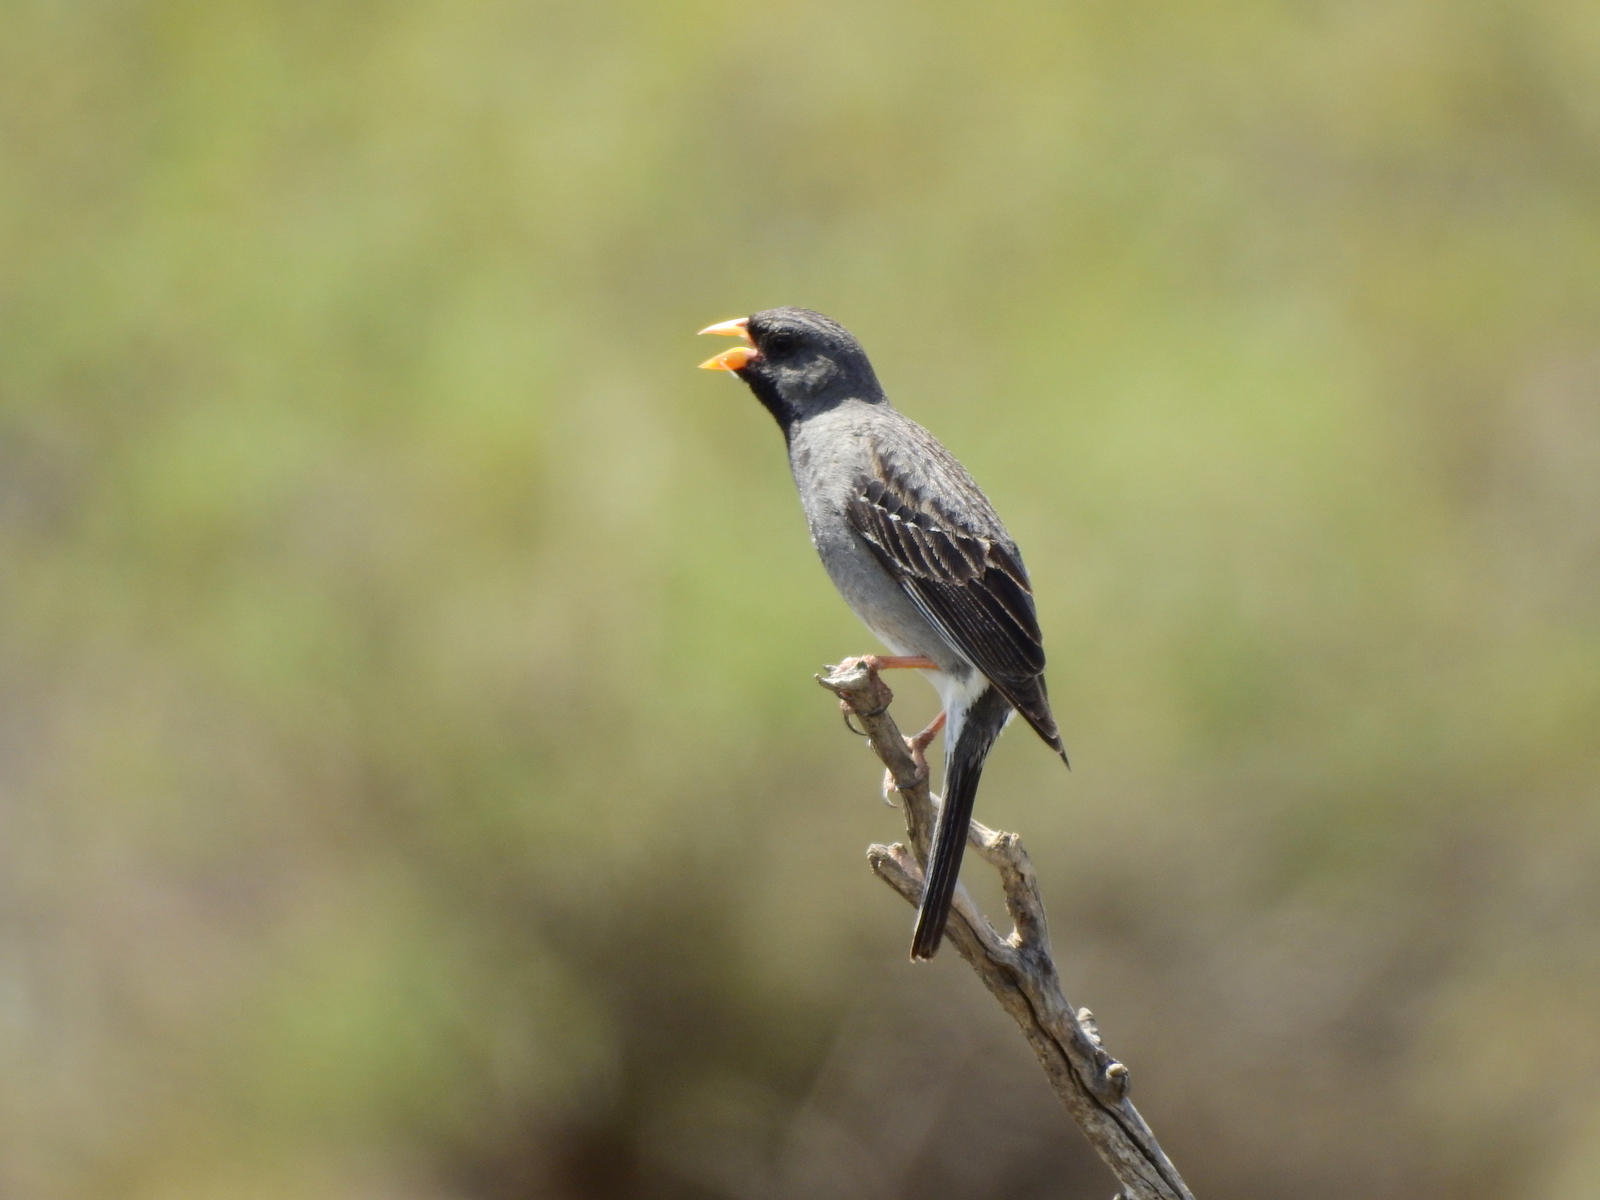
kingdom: Animalia
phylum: Chordata
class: Aves
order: Passeriformes
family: Thraupidae
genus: Rhopospina
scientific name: Rhopospina fruticeti
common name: Mourning sierra finch
